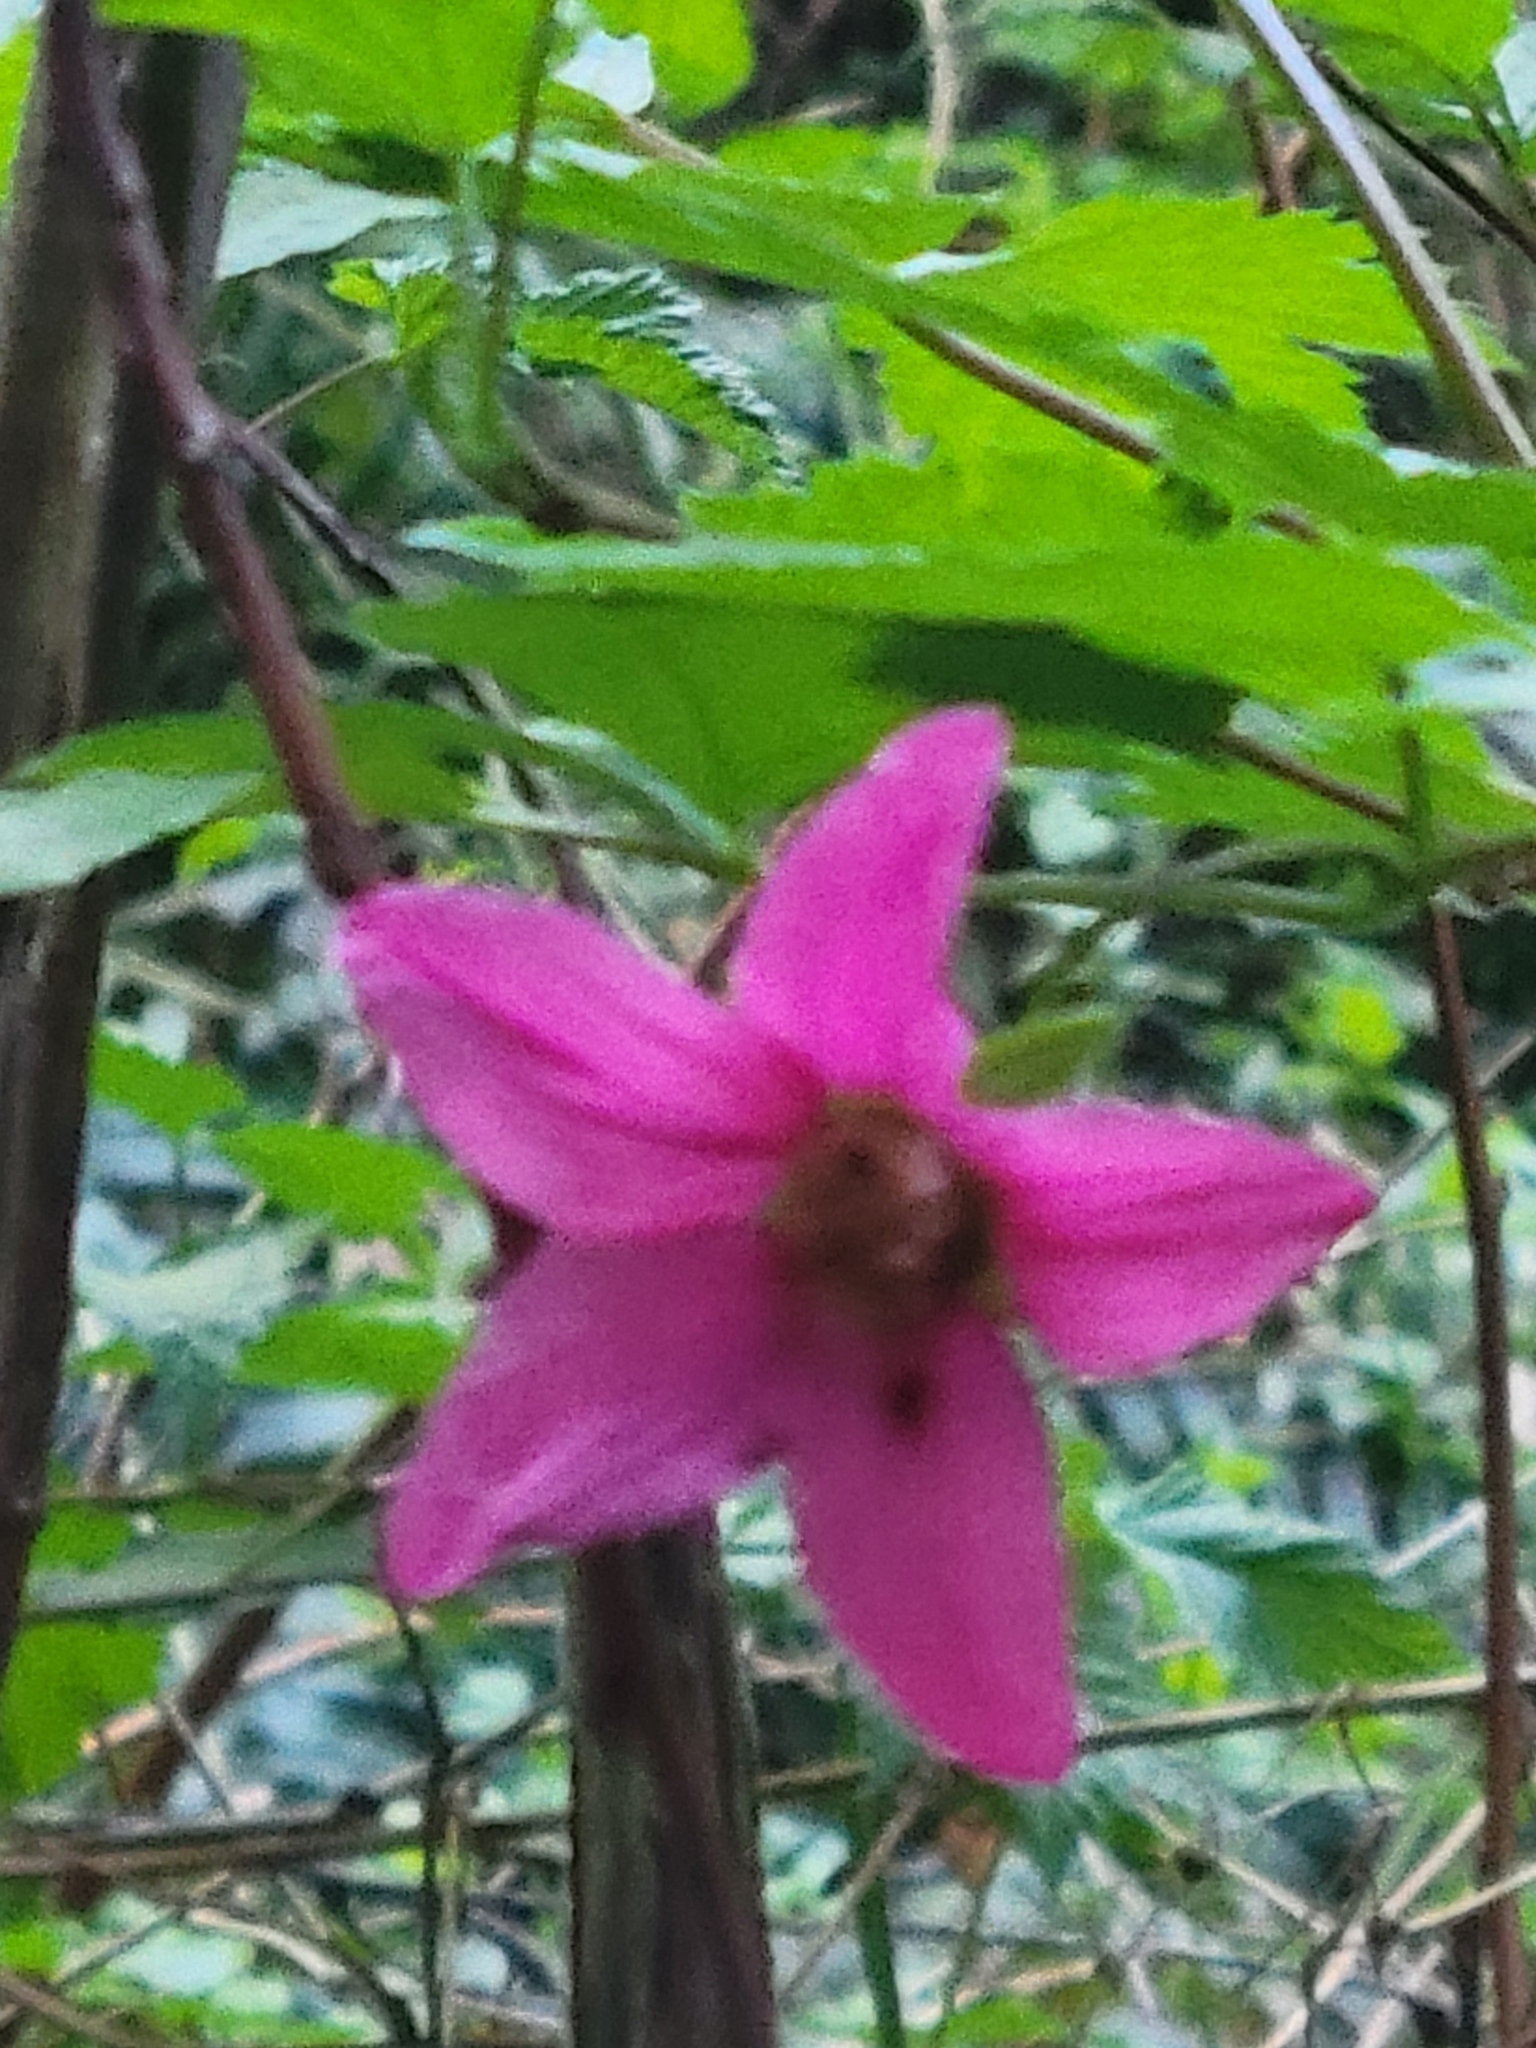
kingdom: Plantae
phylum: Tracheophyta
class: Magnoliopsida
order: Rosales
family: Rosaceae
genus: Rubus
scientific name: Rubus spectabilis
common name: Salmonberry
